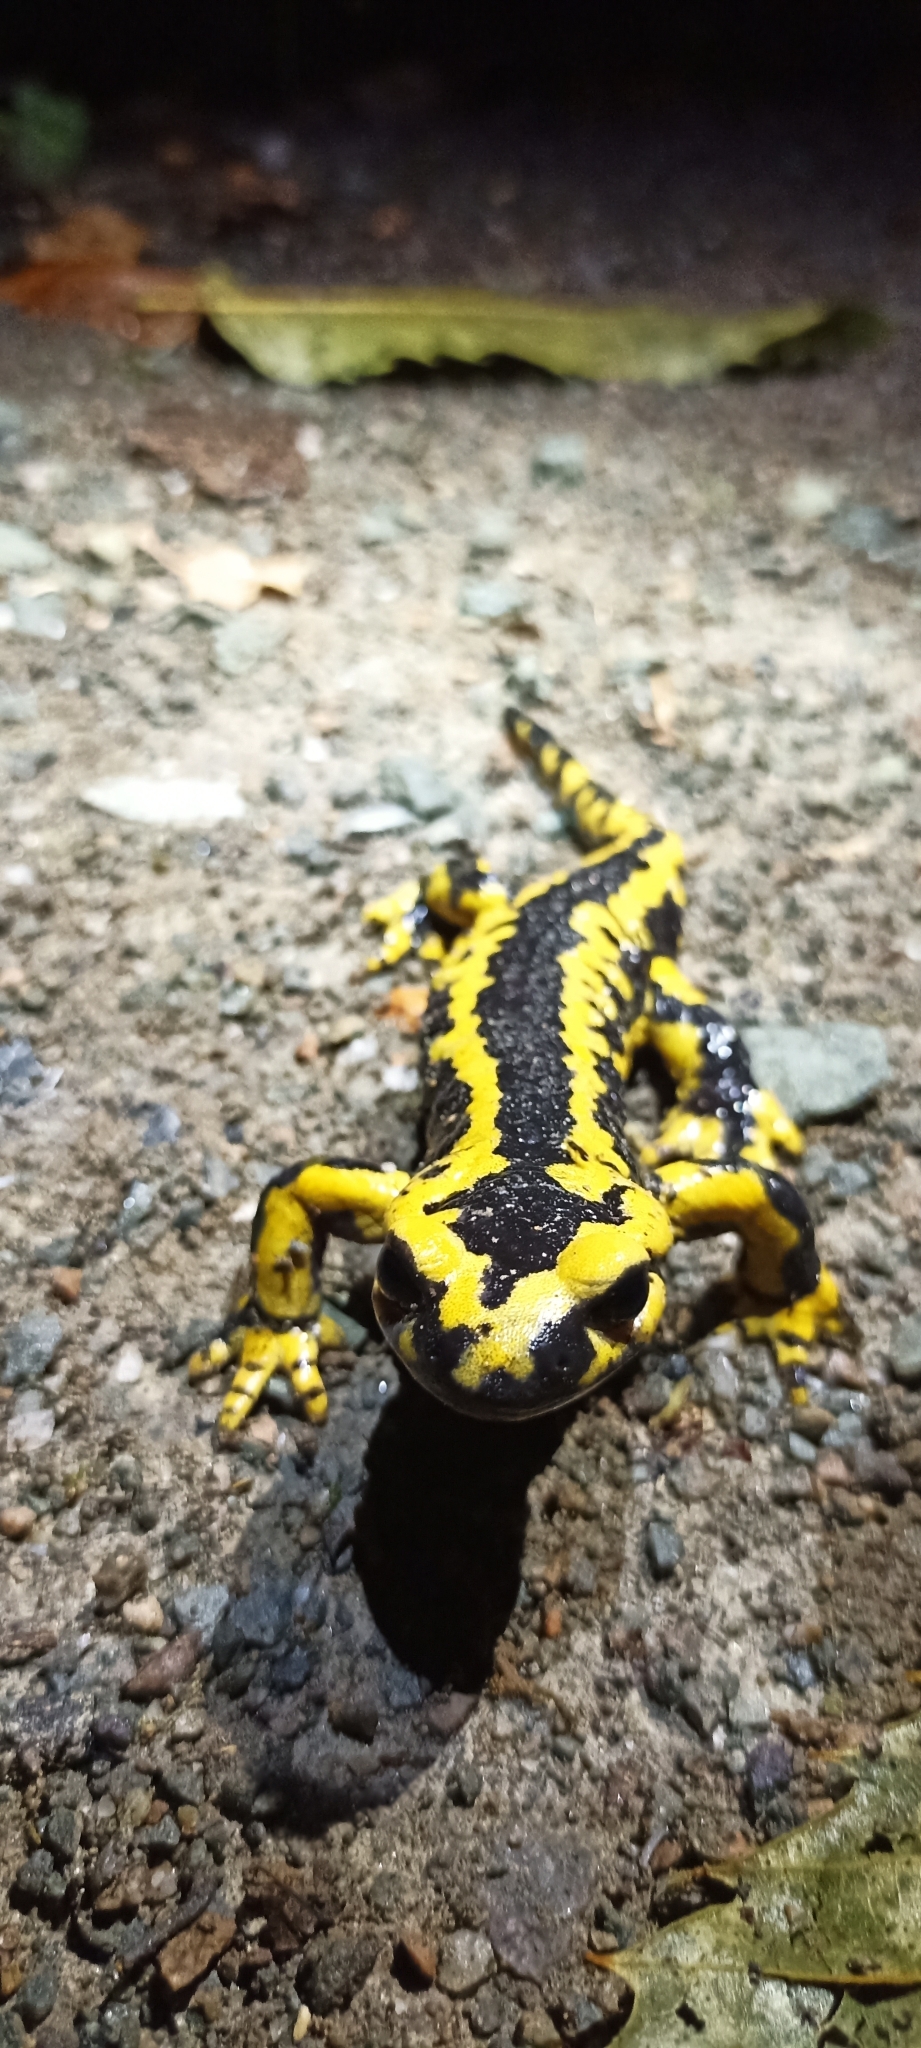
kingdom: Animalia
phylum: Chordata
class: Amphibia
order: Caudata
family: Salamandridae
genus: Salamandra
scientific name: Salamandra salamandra
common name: Fire salamander
